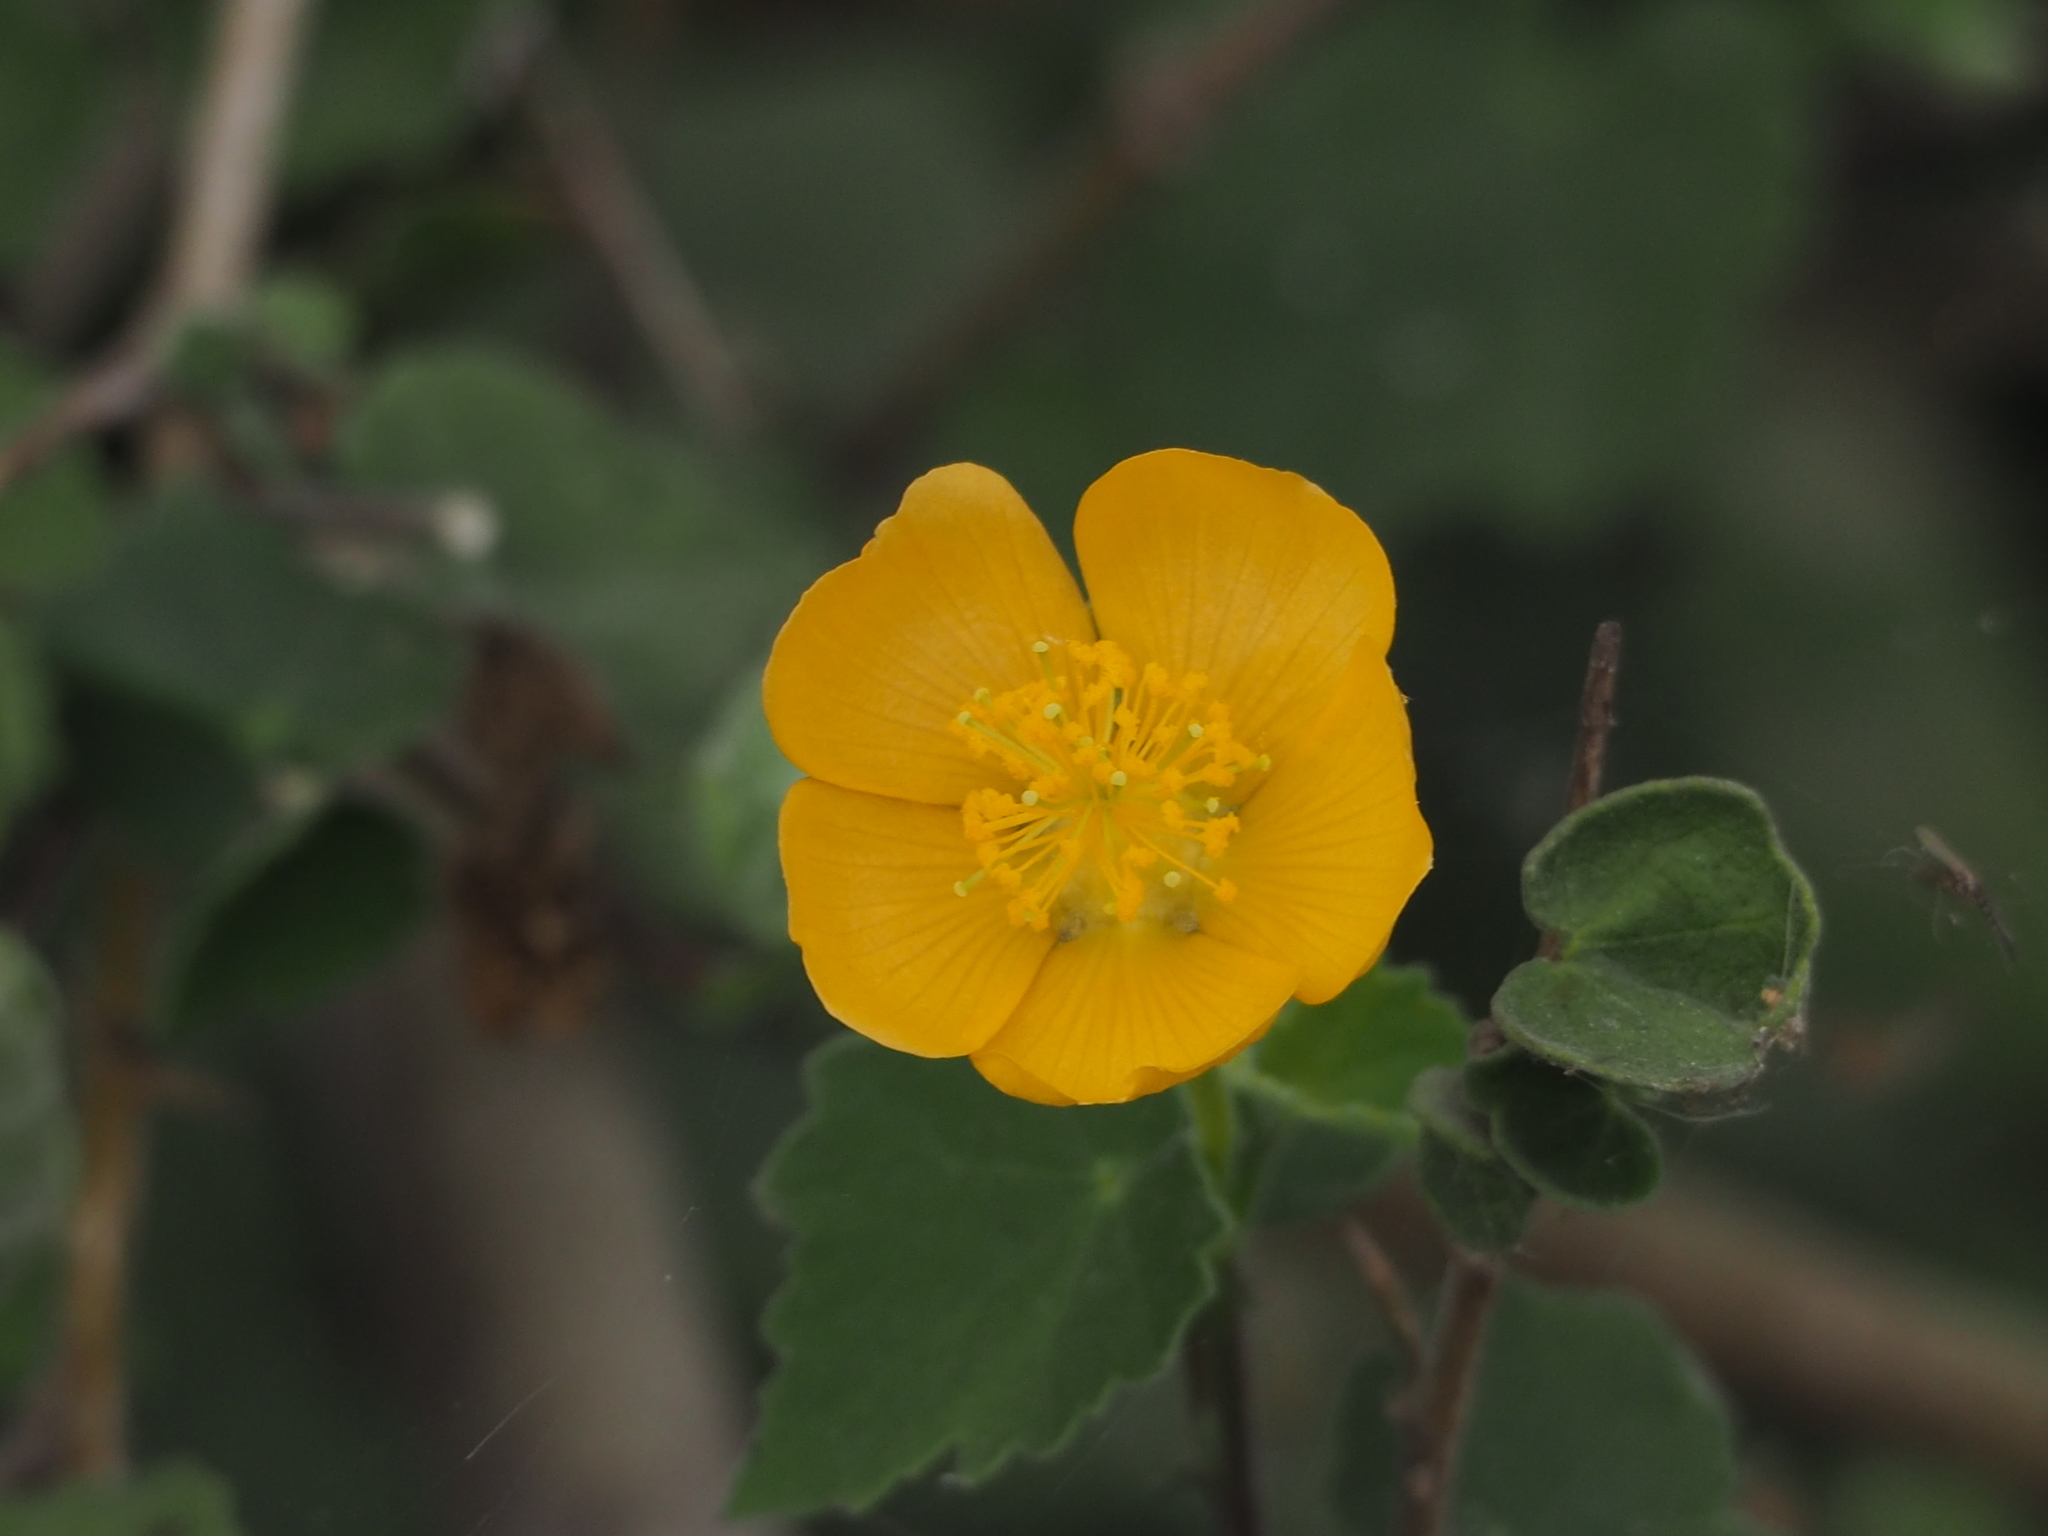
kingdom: Plantae
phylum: Tracheophyta
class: Magnoliopsida
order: Malvales
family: Malvaceae
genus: Abutilon
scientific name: Abutilon indicum
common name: Indian abutilon
